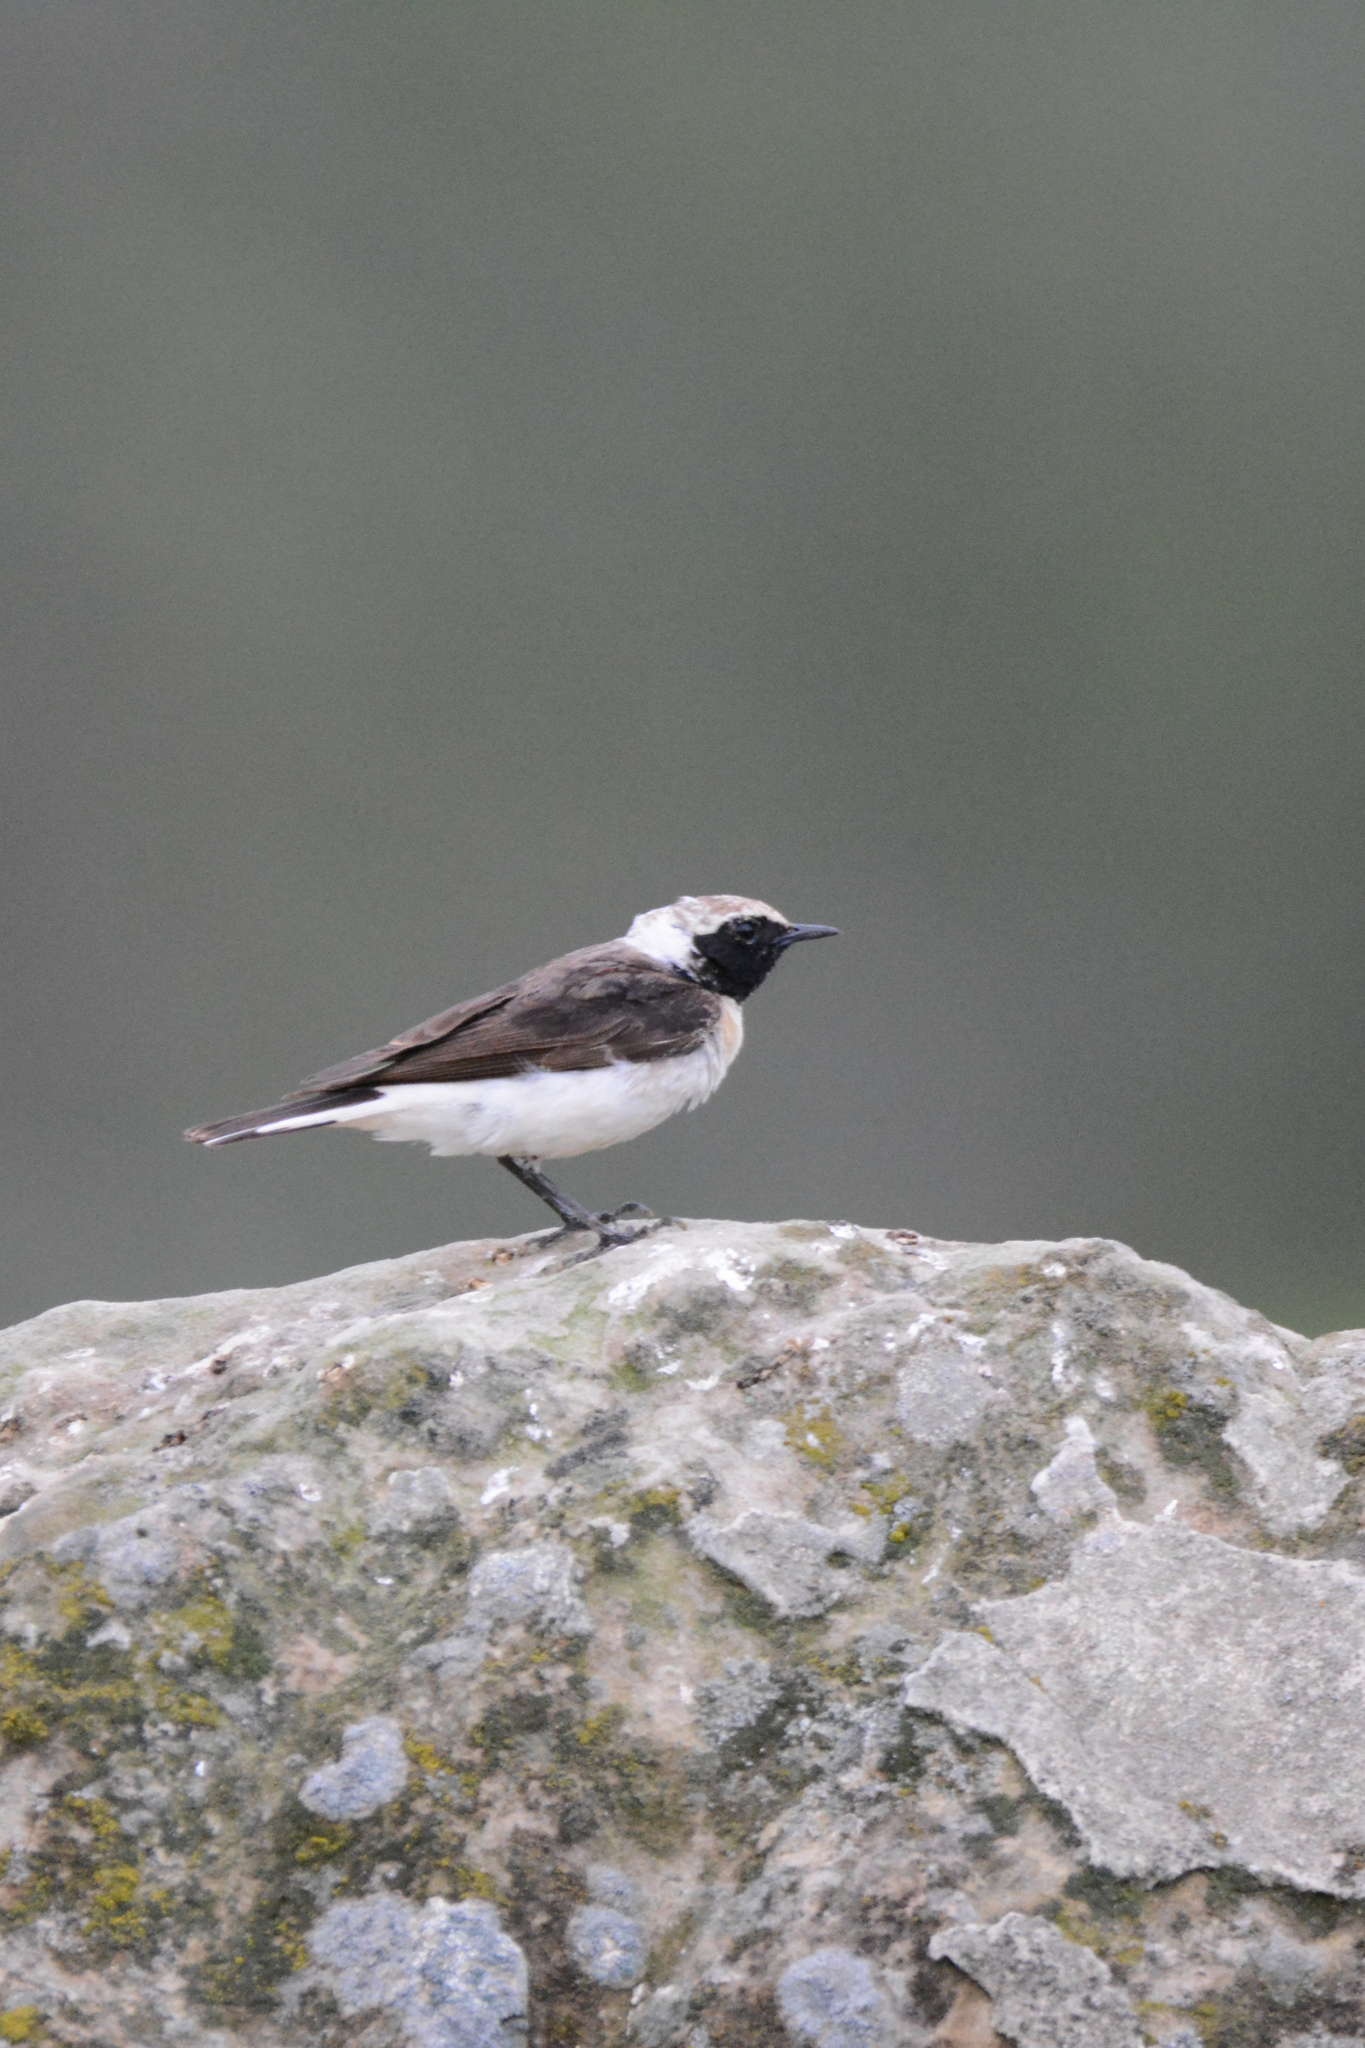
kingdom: Animalia
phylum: Chordata
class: Aves
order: Passeriformes
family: Muscicapidae
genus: Oenanthe
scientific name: Oenanthe
